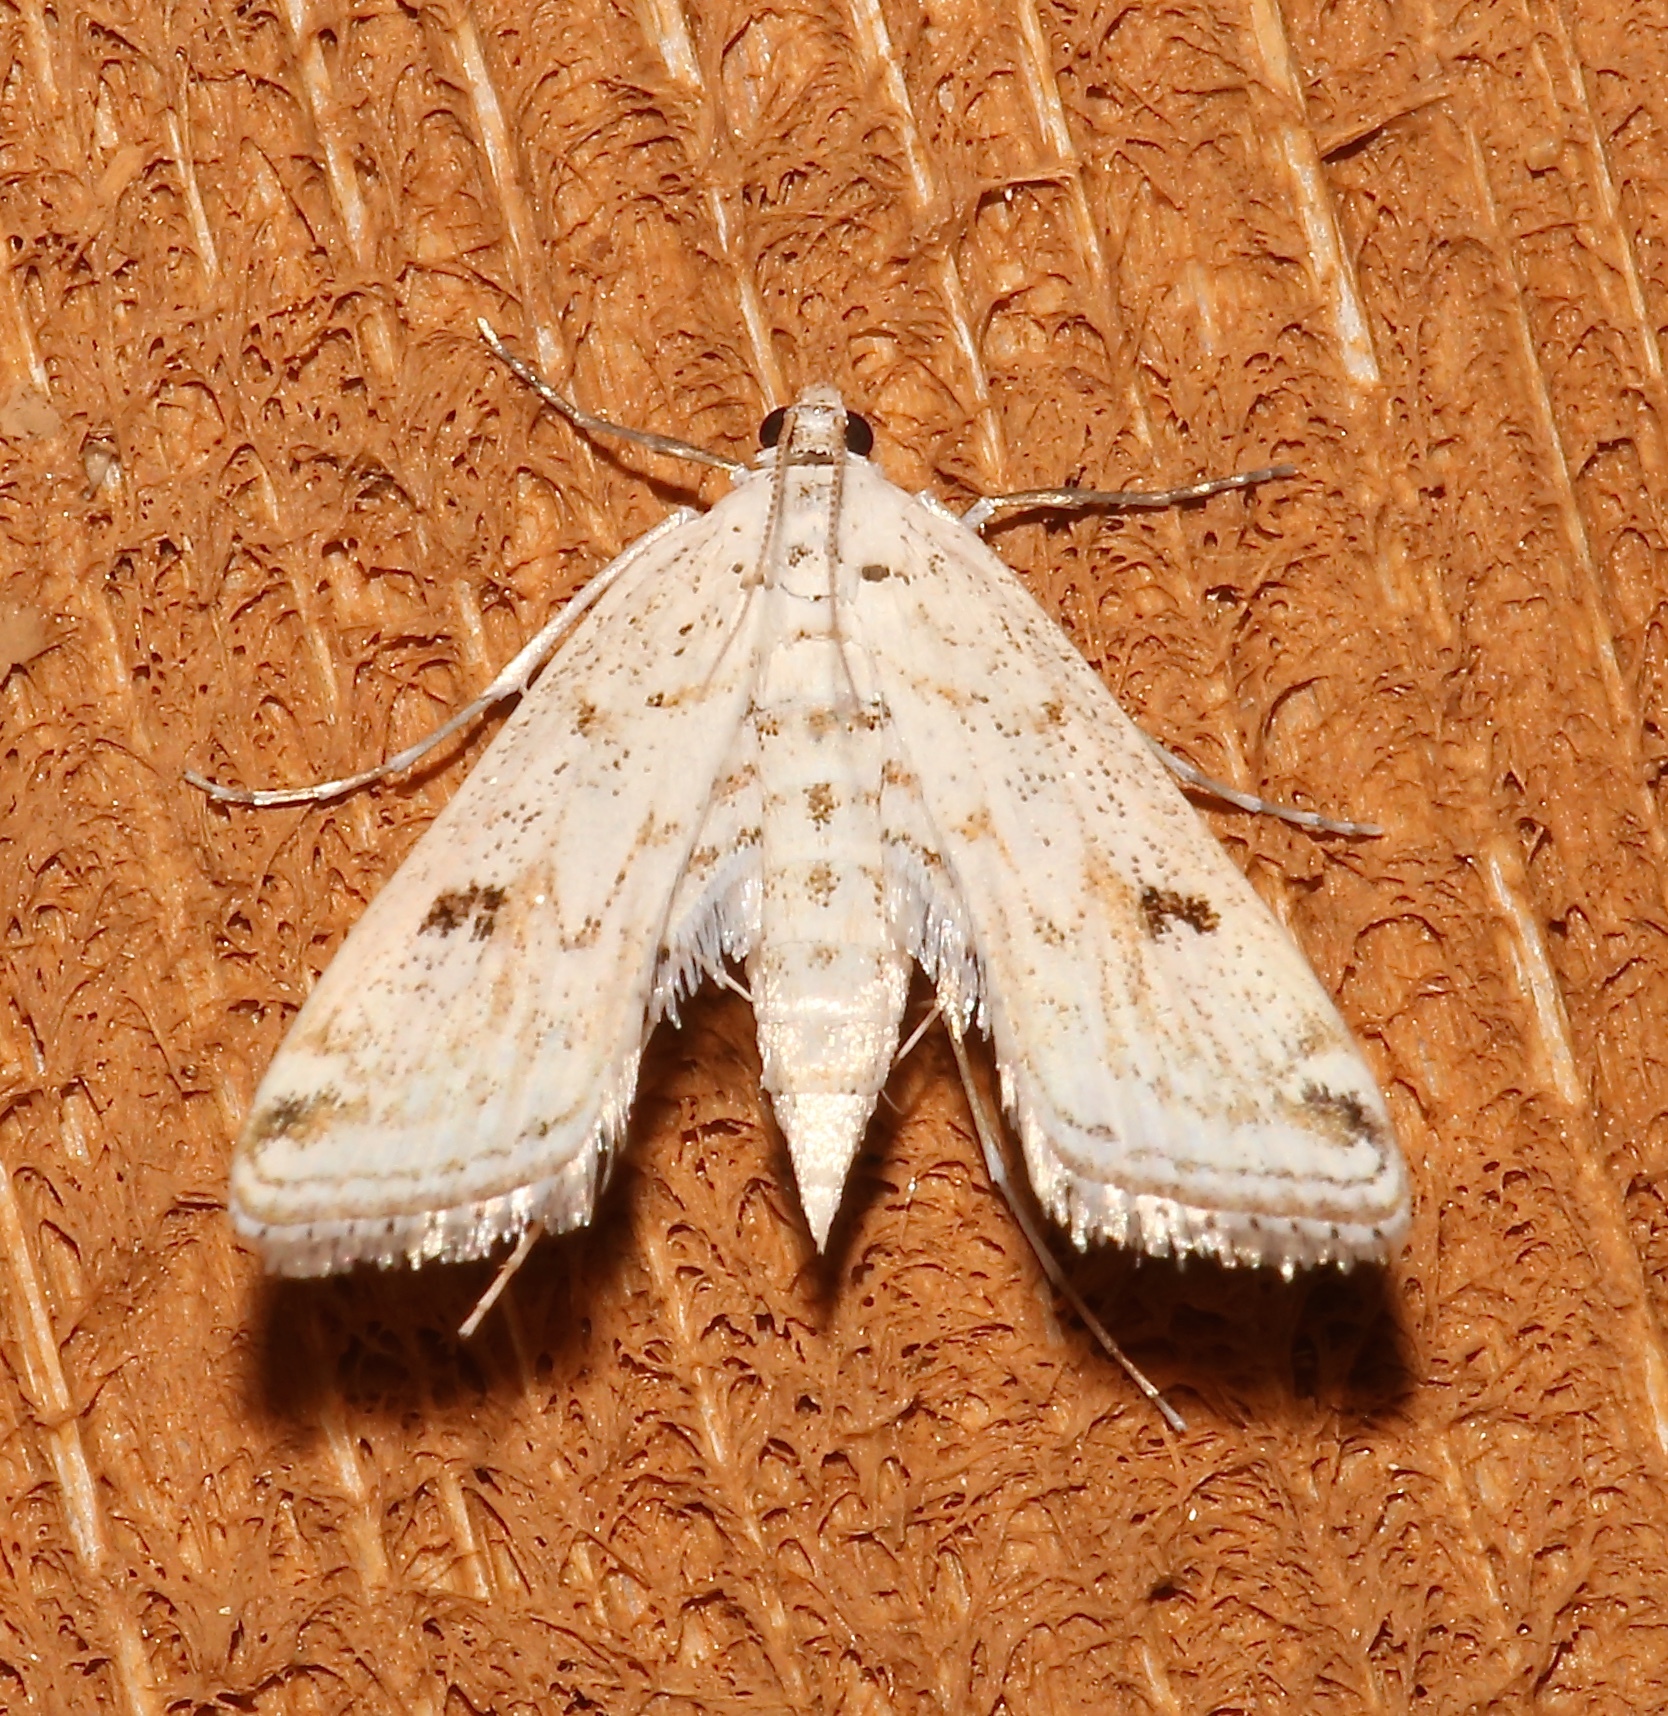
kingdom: Animalia
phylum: Arthropoda
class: Insecta
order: Lepidoptera
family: Crambidae
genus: Parapoynx
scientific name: Parapoynx allionealis
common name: Bladderwort casemaker
